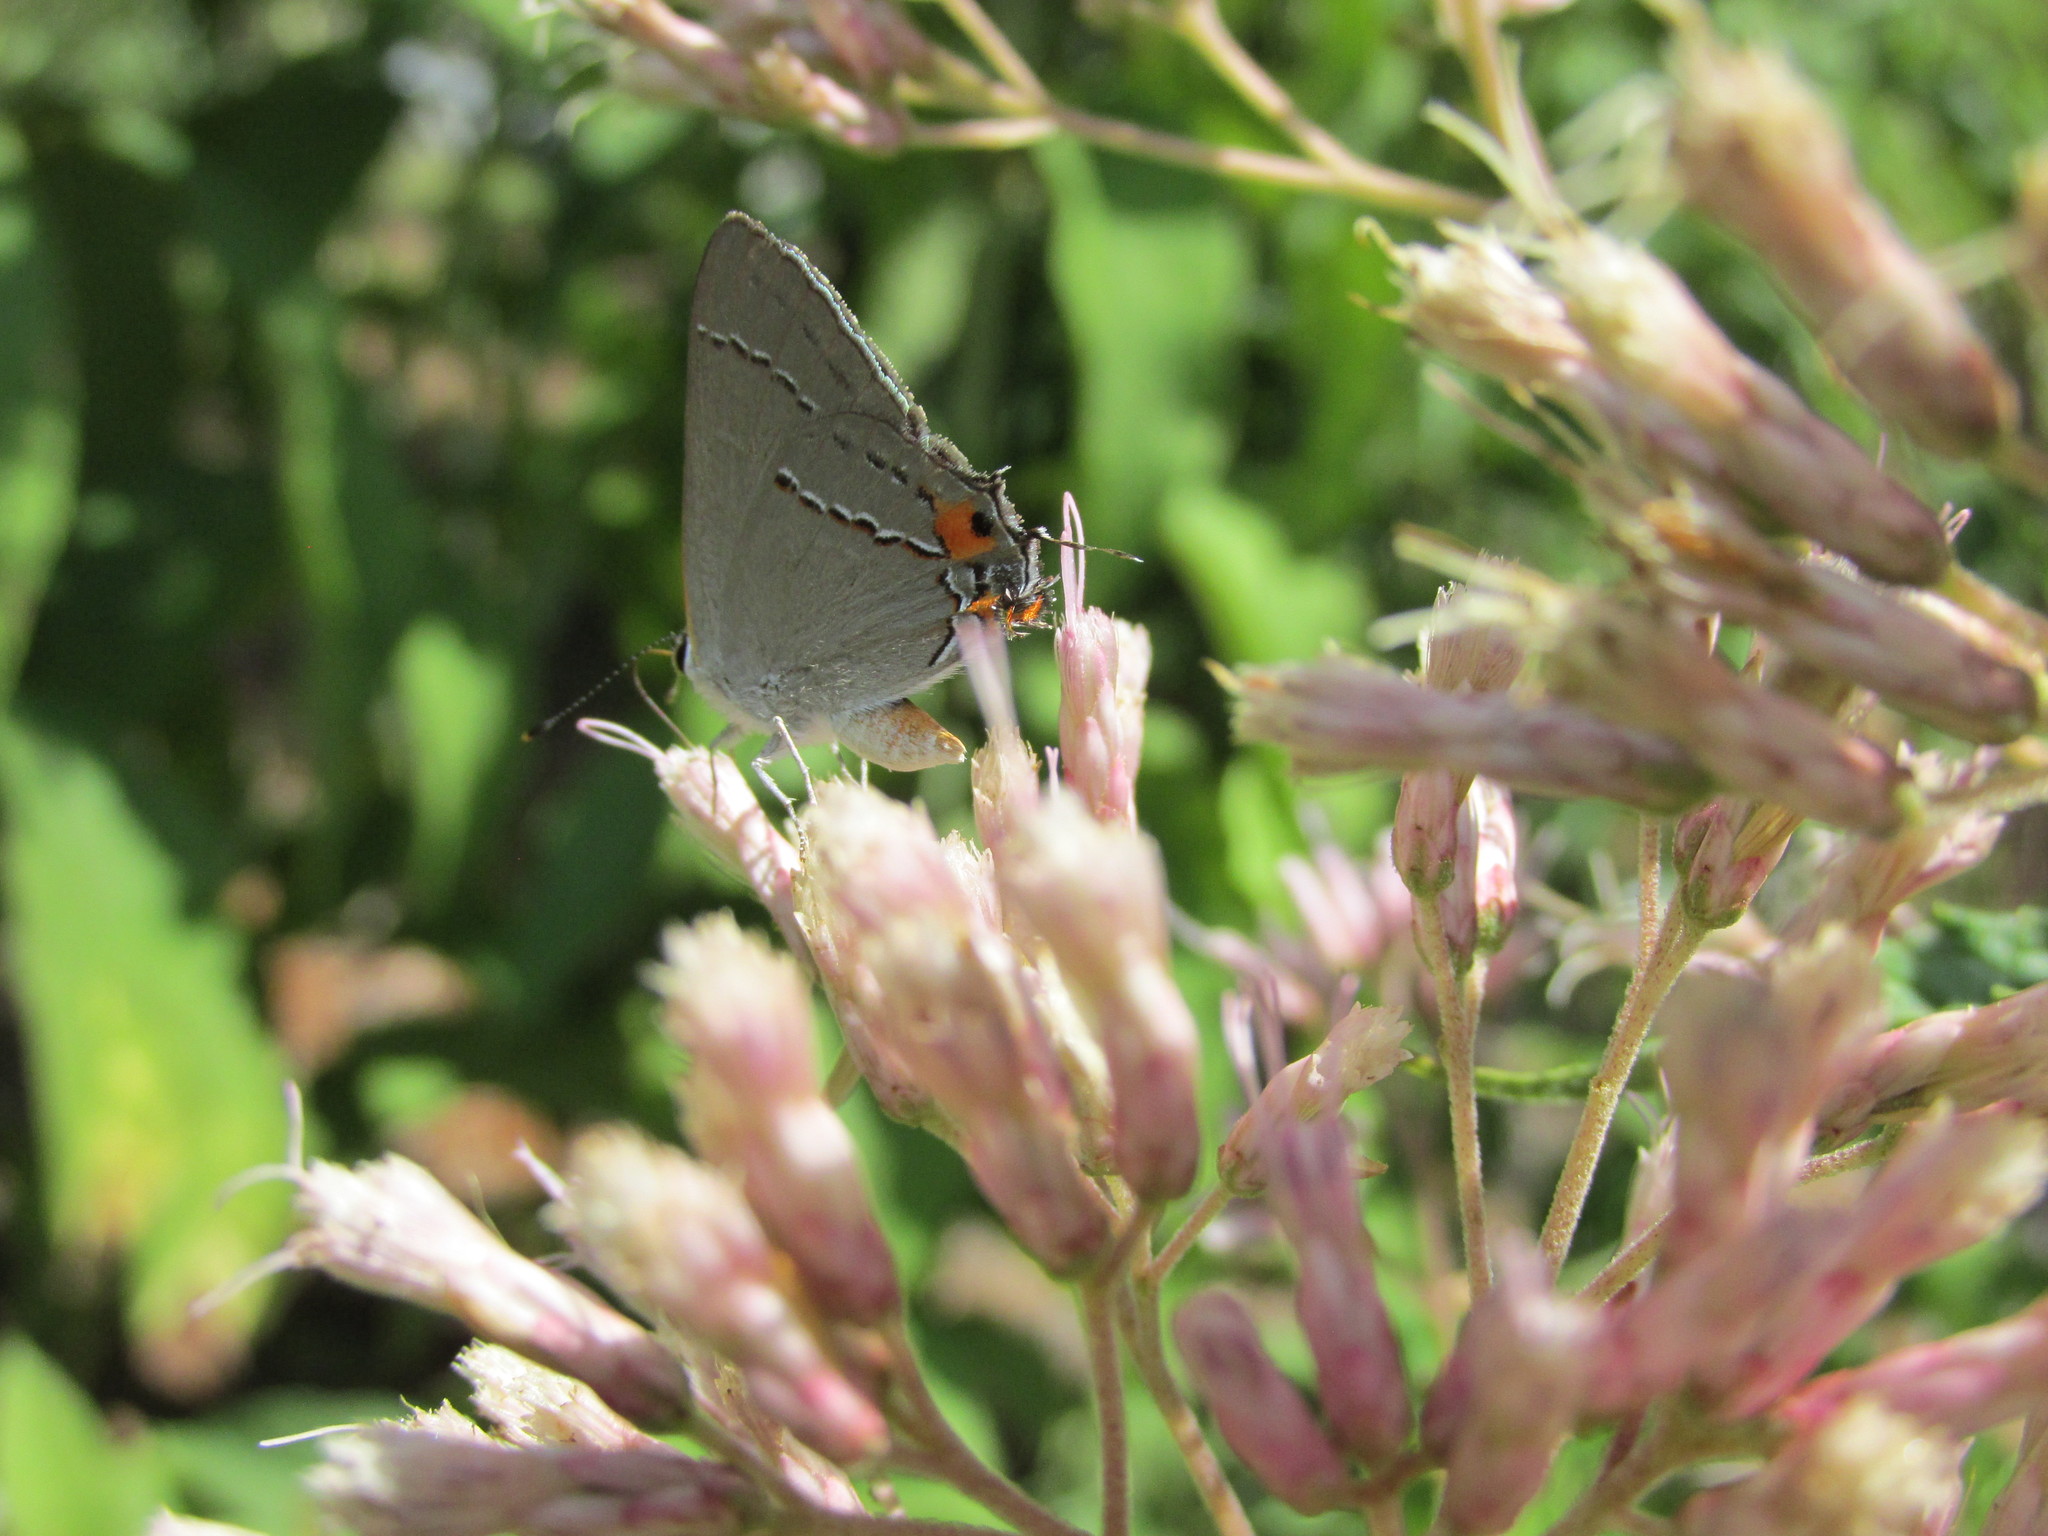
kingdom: Animalia
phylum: Arthropoda
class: Insecta
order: Lepidoptera
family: Lycaenidae
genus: Strymon
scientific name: Strymon melinus
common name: Gray hairstreak
